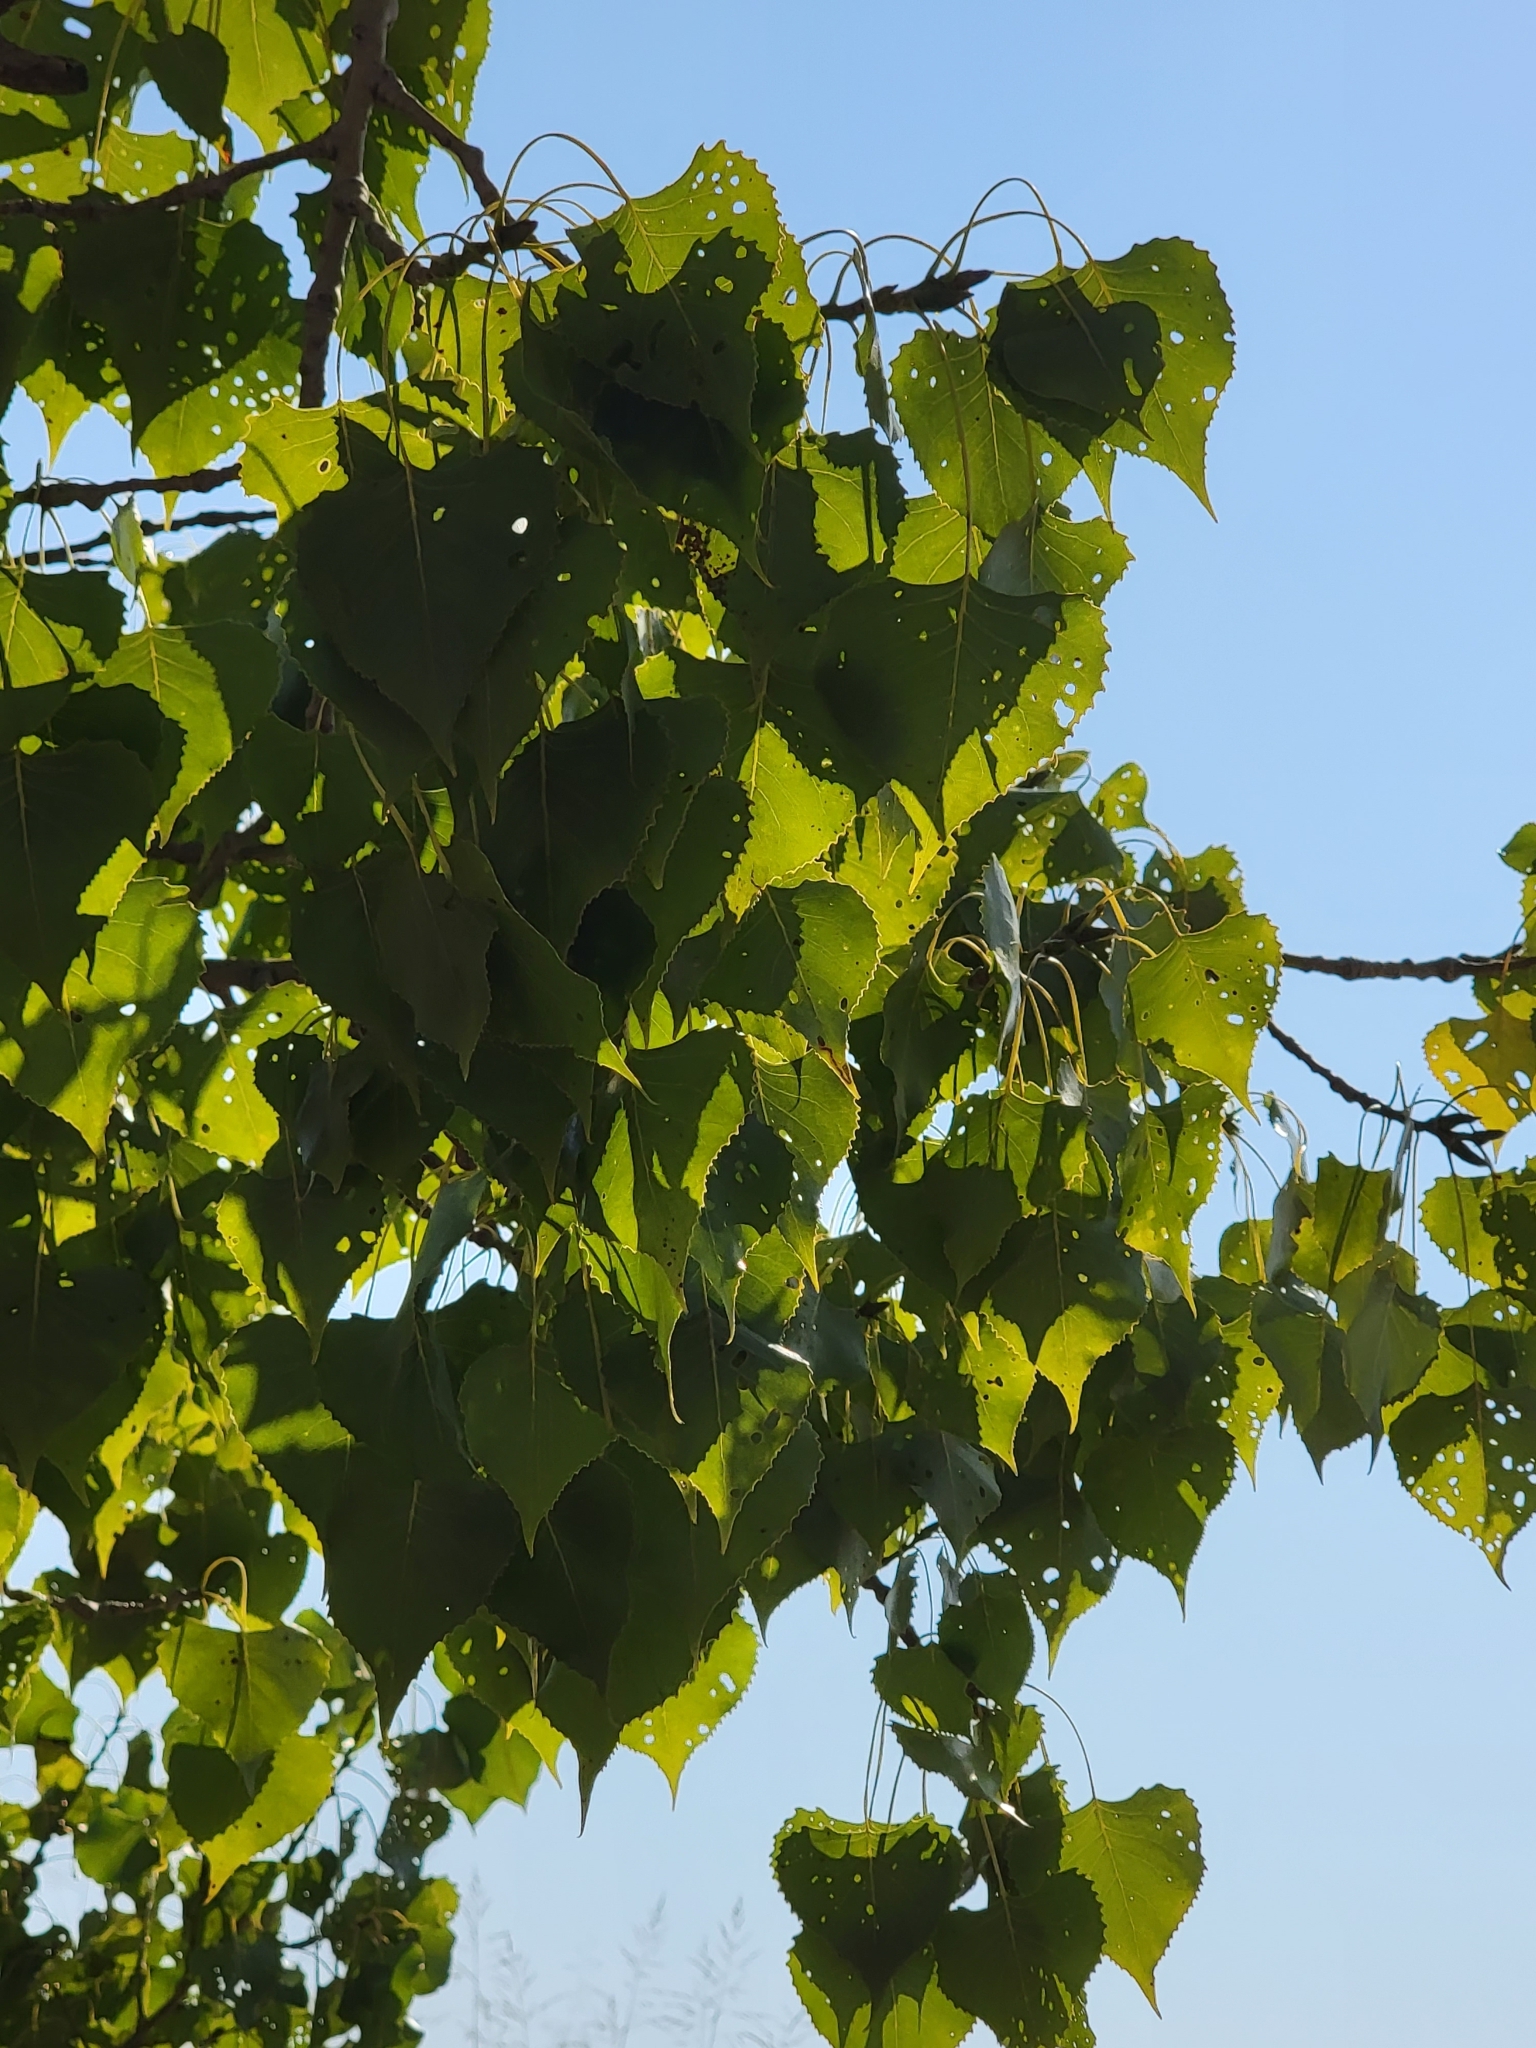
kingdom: Plantae
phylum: Tracheophyta
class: Magnoliopsida
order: Malpighiales
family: Salicaceae
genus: Populus
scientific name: Populus deltoides
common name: Eastern cottonwood
